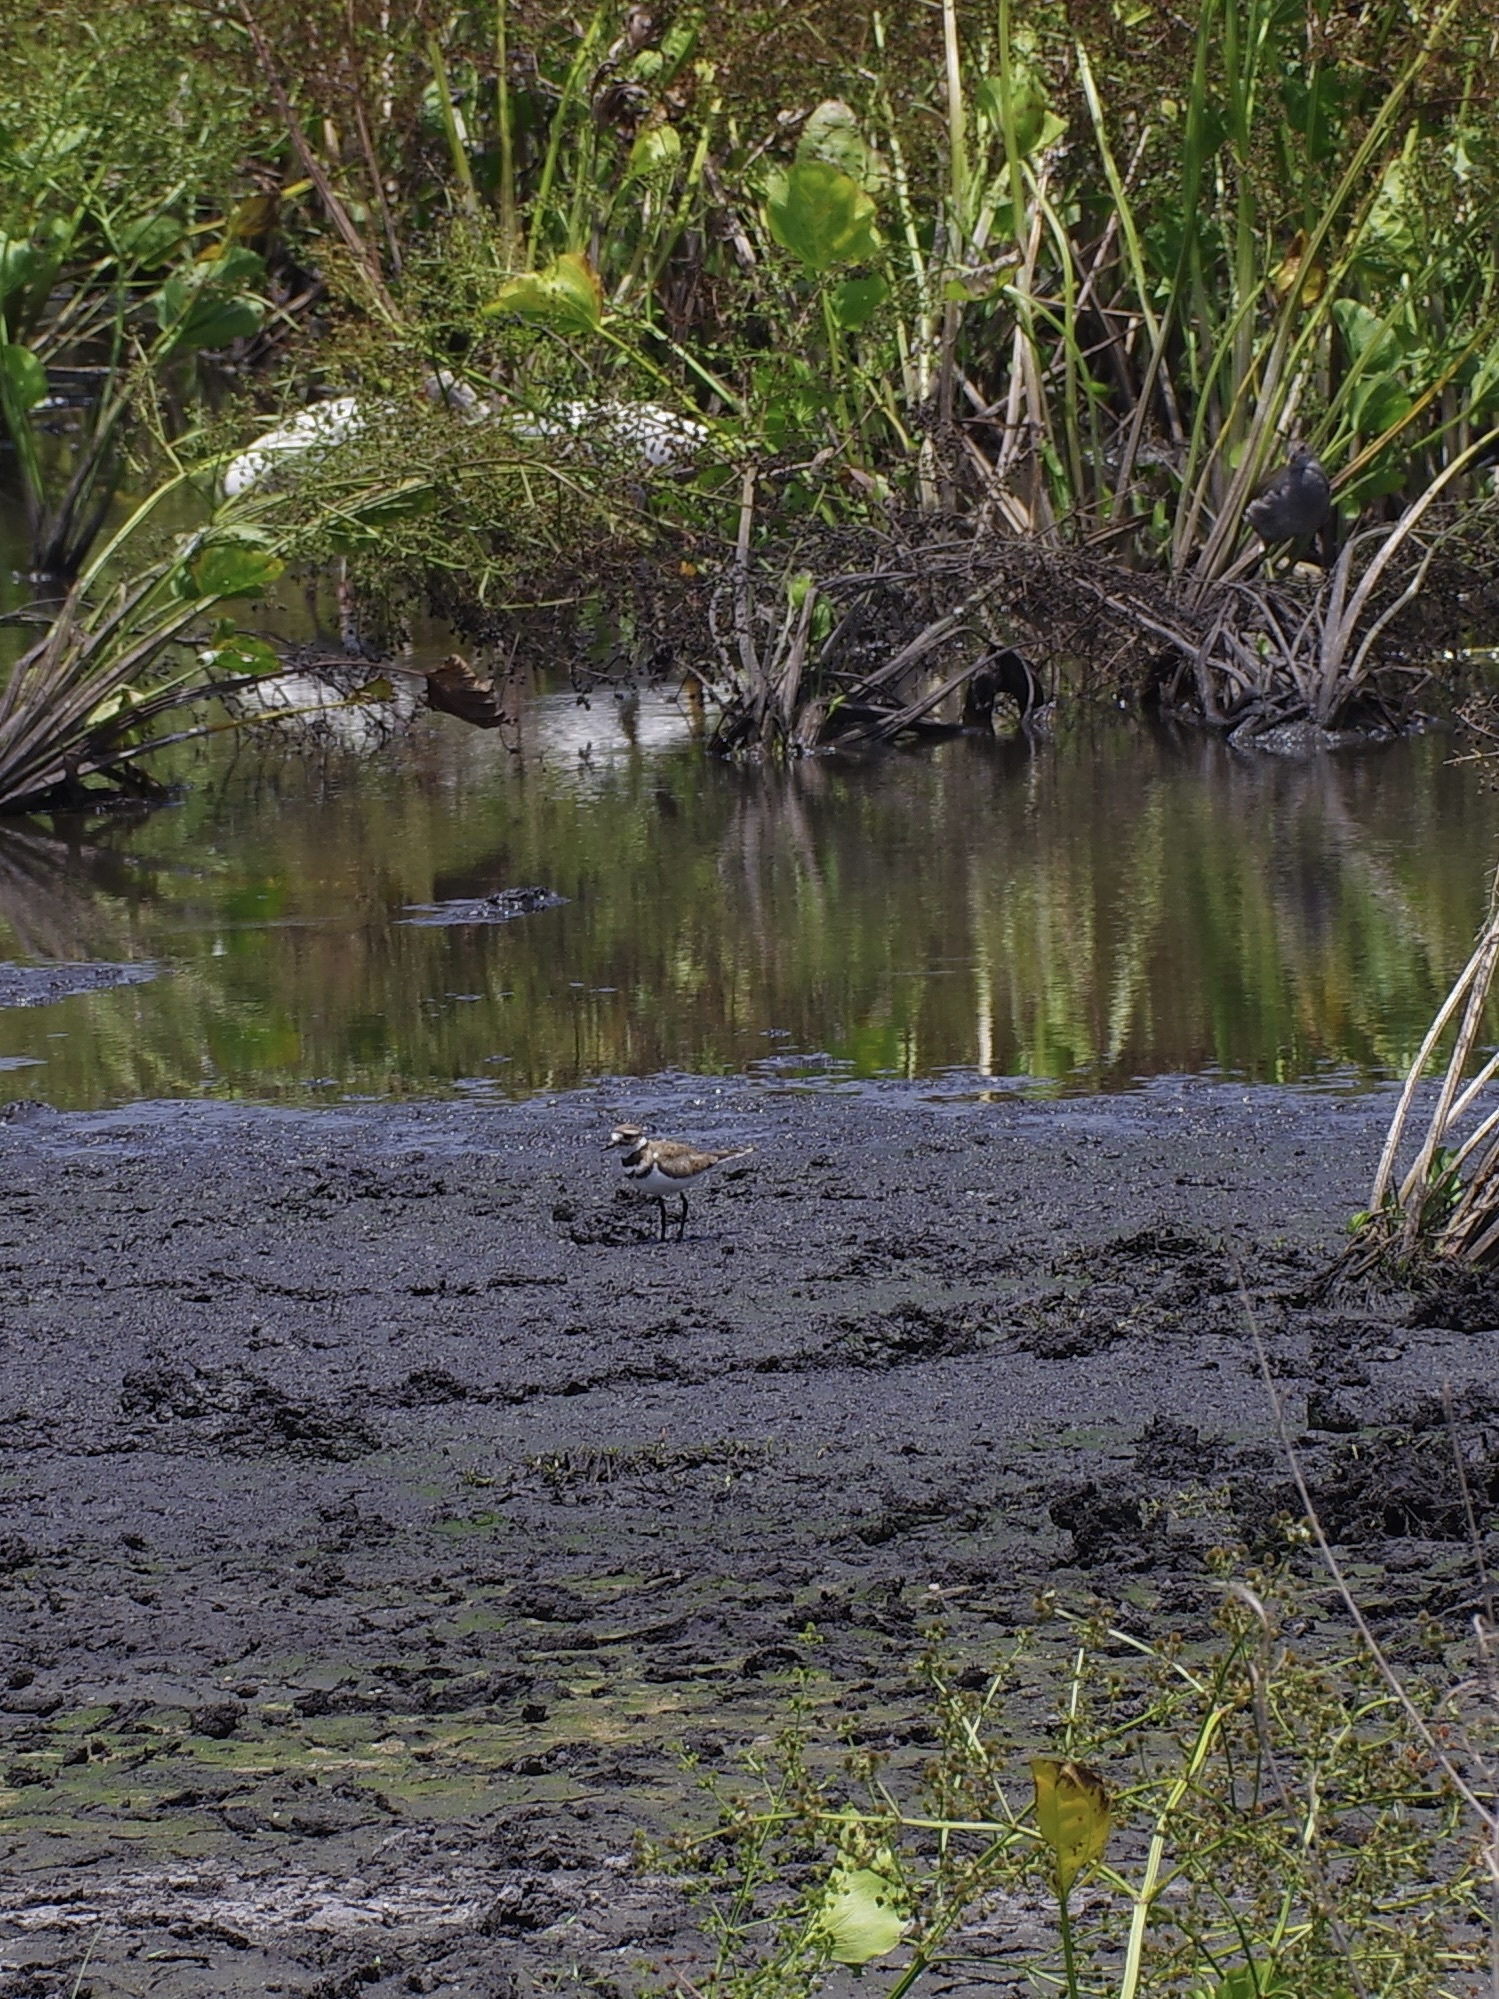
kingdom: Animalia
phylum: Chordata
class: Aves
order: Charadriiformes
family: Charadriidae
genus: Charadrius
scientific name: Charadrius vociferus
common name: Killdeer
